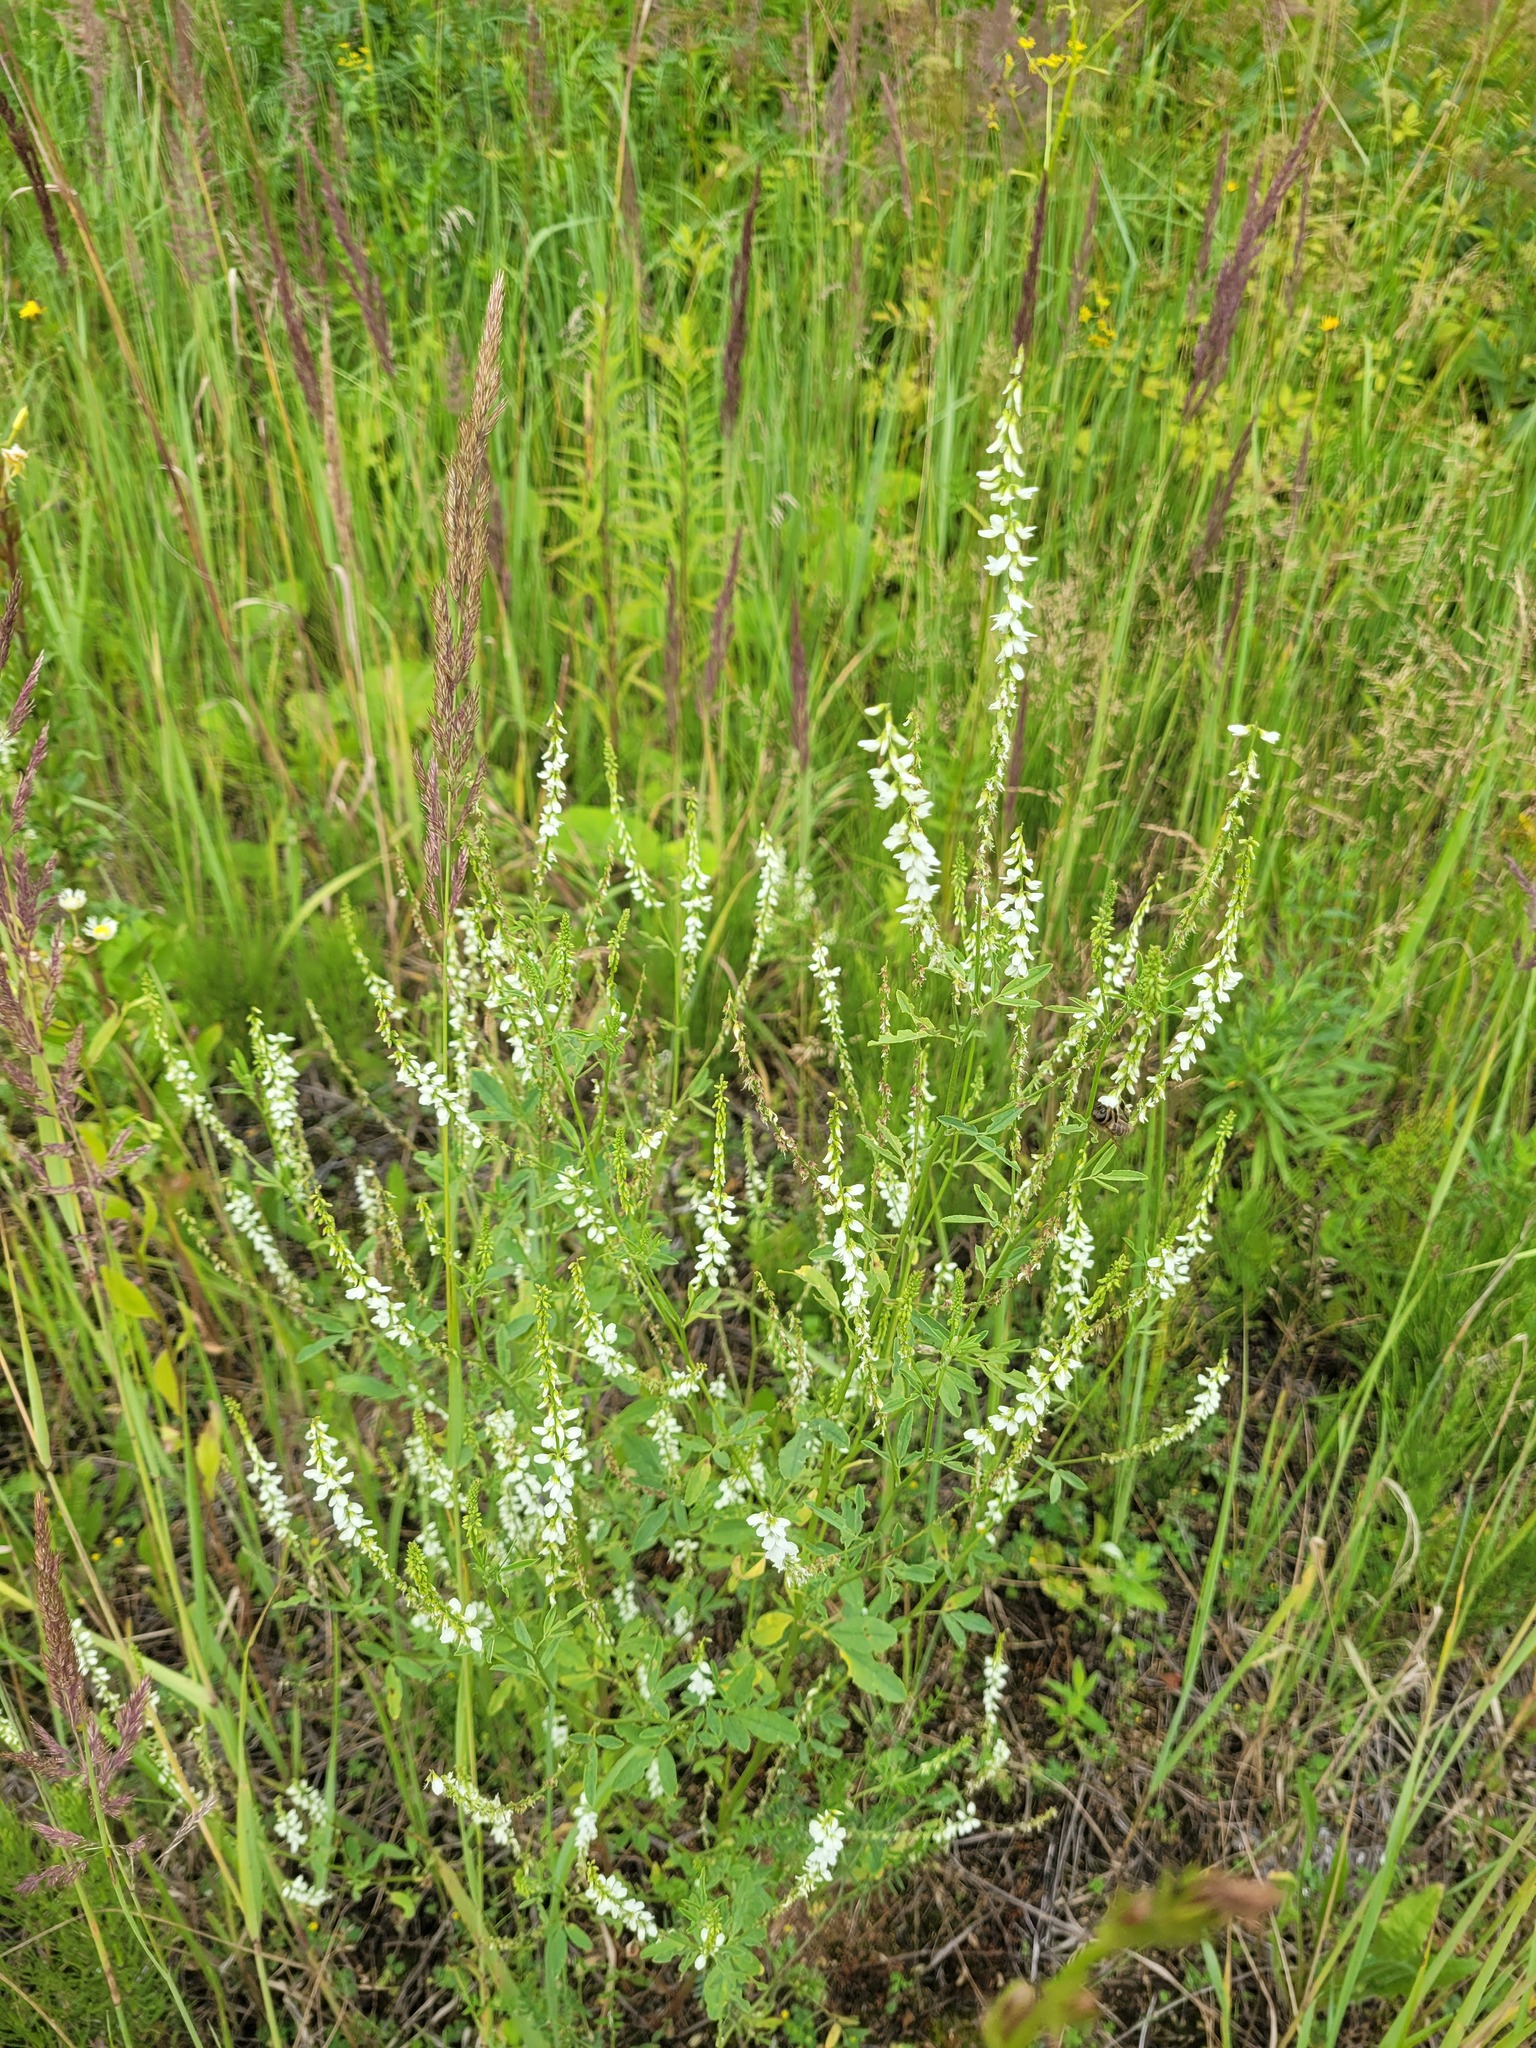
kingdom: Plantae
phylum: Tracheophyta
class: Magnoliopsida
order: Fabales
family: Fabaceae
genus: Melilotus
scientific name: Melilotus albus
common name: White melilot
